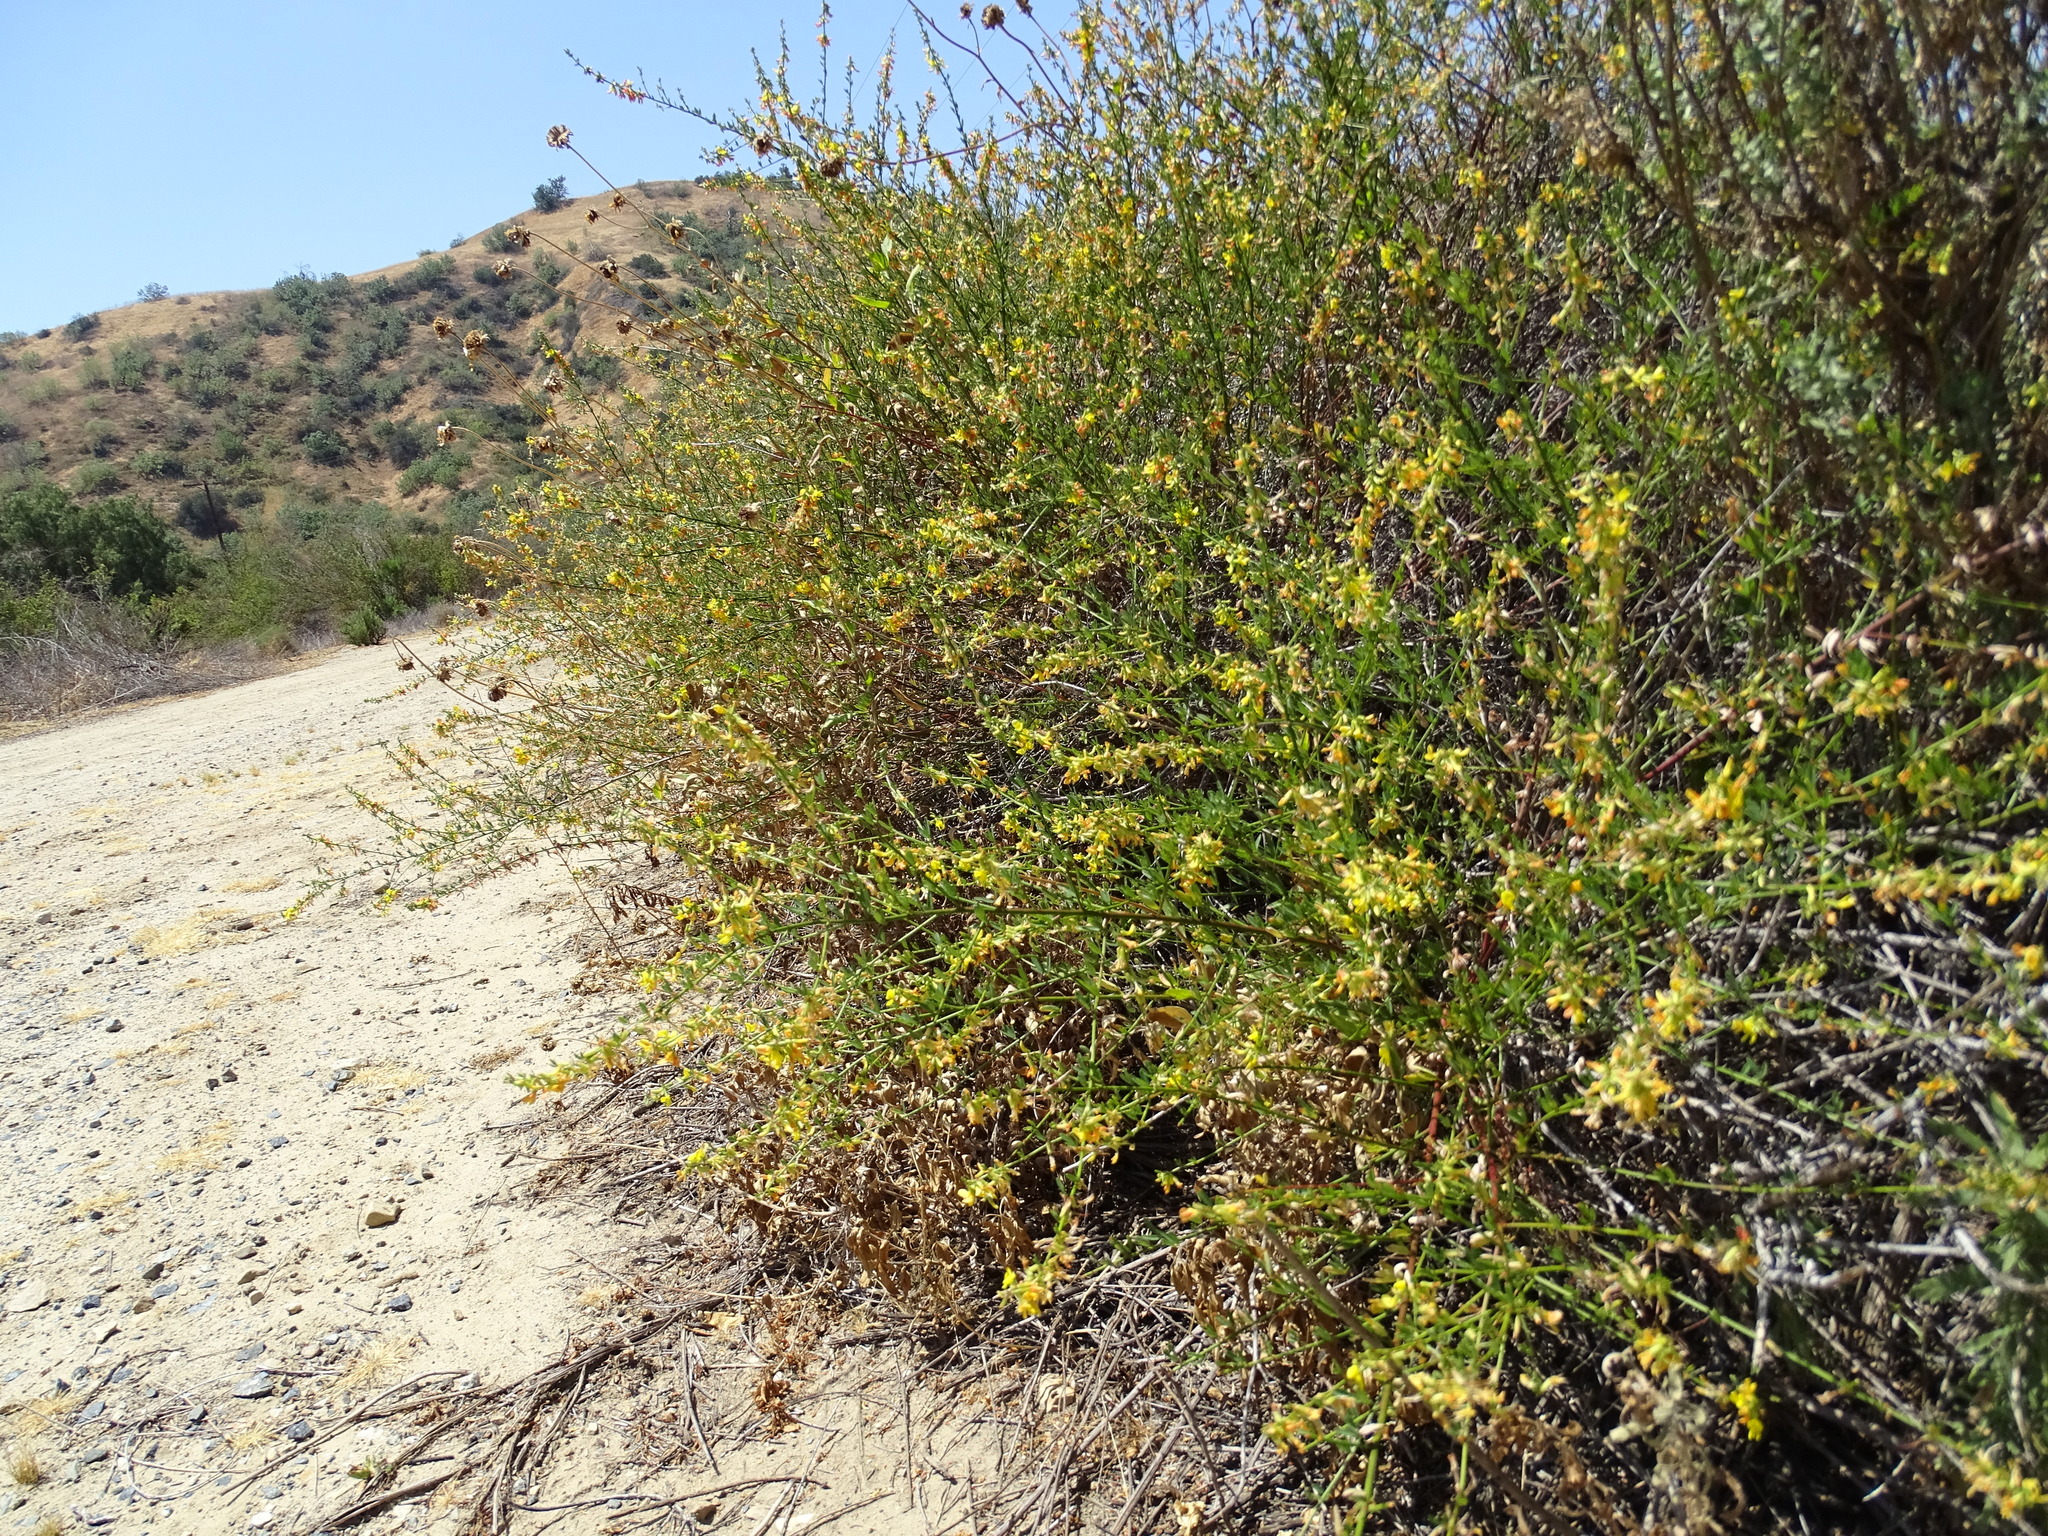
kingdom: Plantae
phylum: Tracheophyta
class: Magnoliopsida
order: Fabales
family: Fabaceae
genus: Acmispon
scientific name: Acmispon glaber
